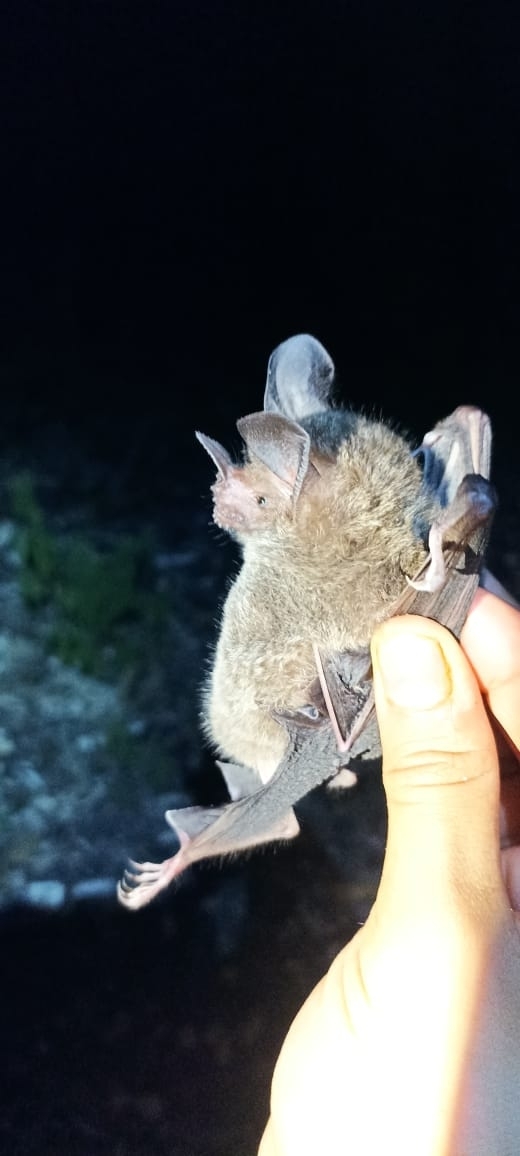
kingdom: Animalia
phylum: Chordata
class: Mammalia
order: Chiroptera
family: Phyllostomidae
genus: Trachops
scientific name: Trachops cirrhosus
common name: Fringe-lipped bat
